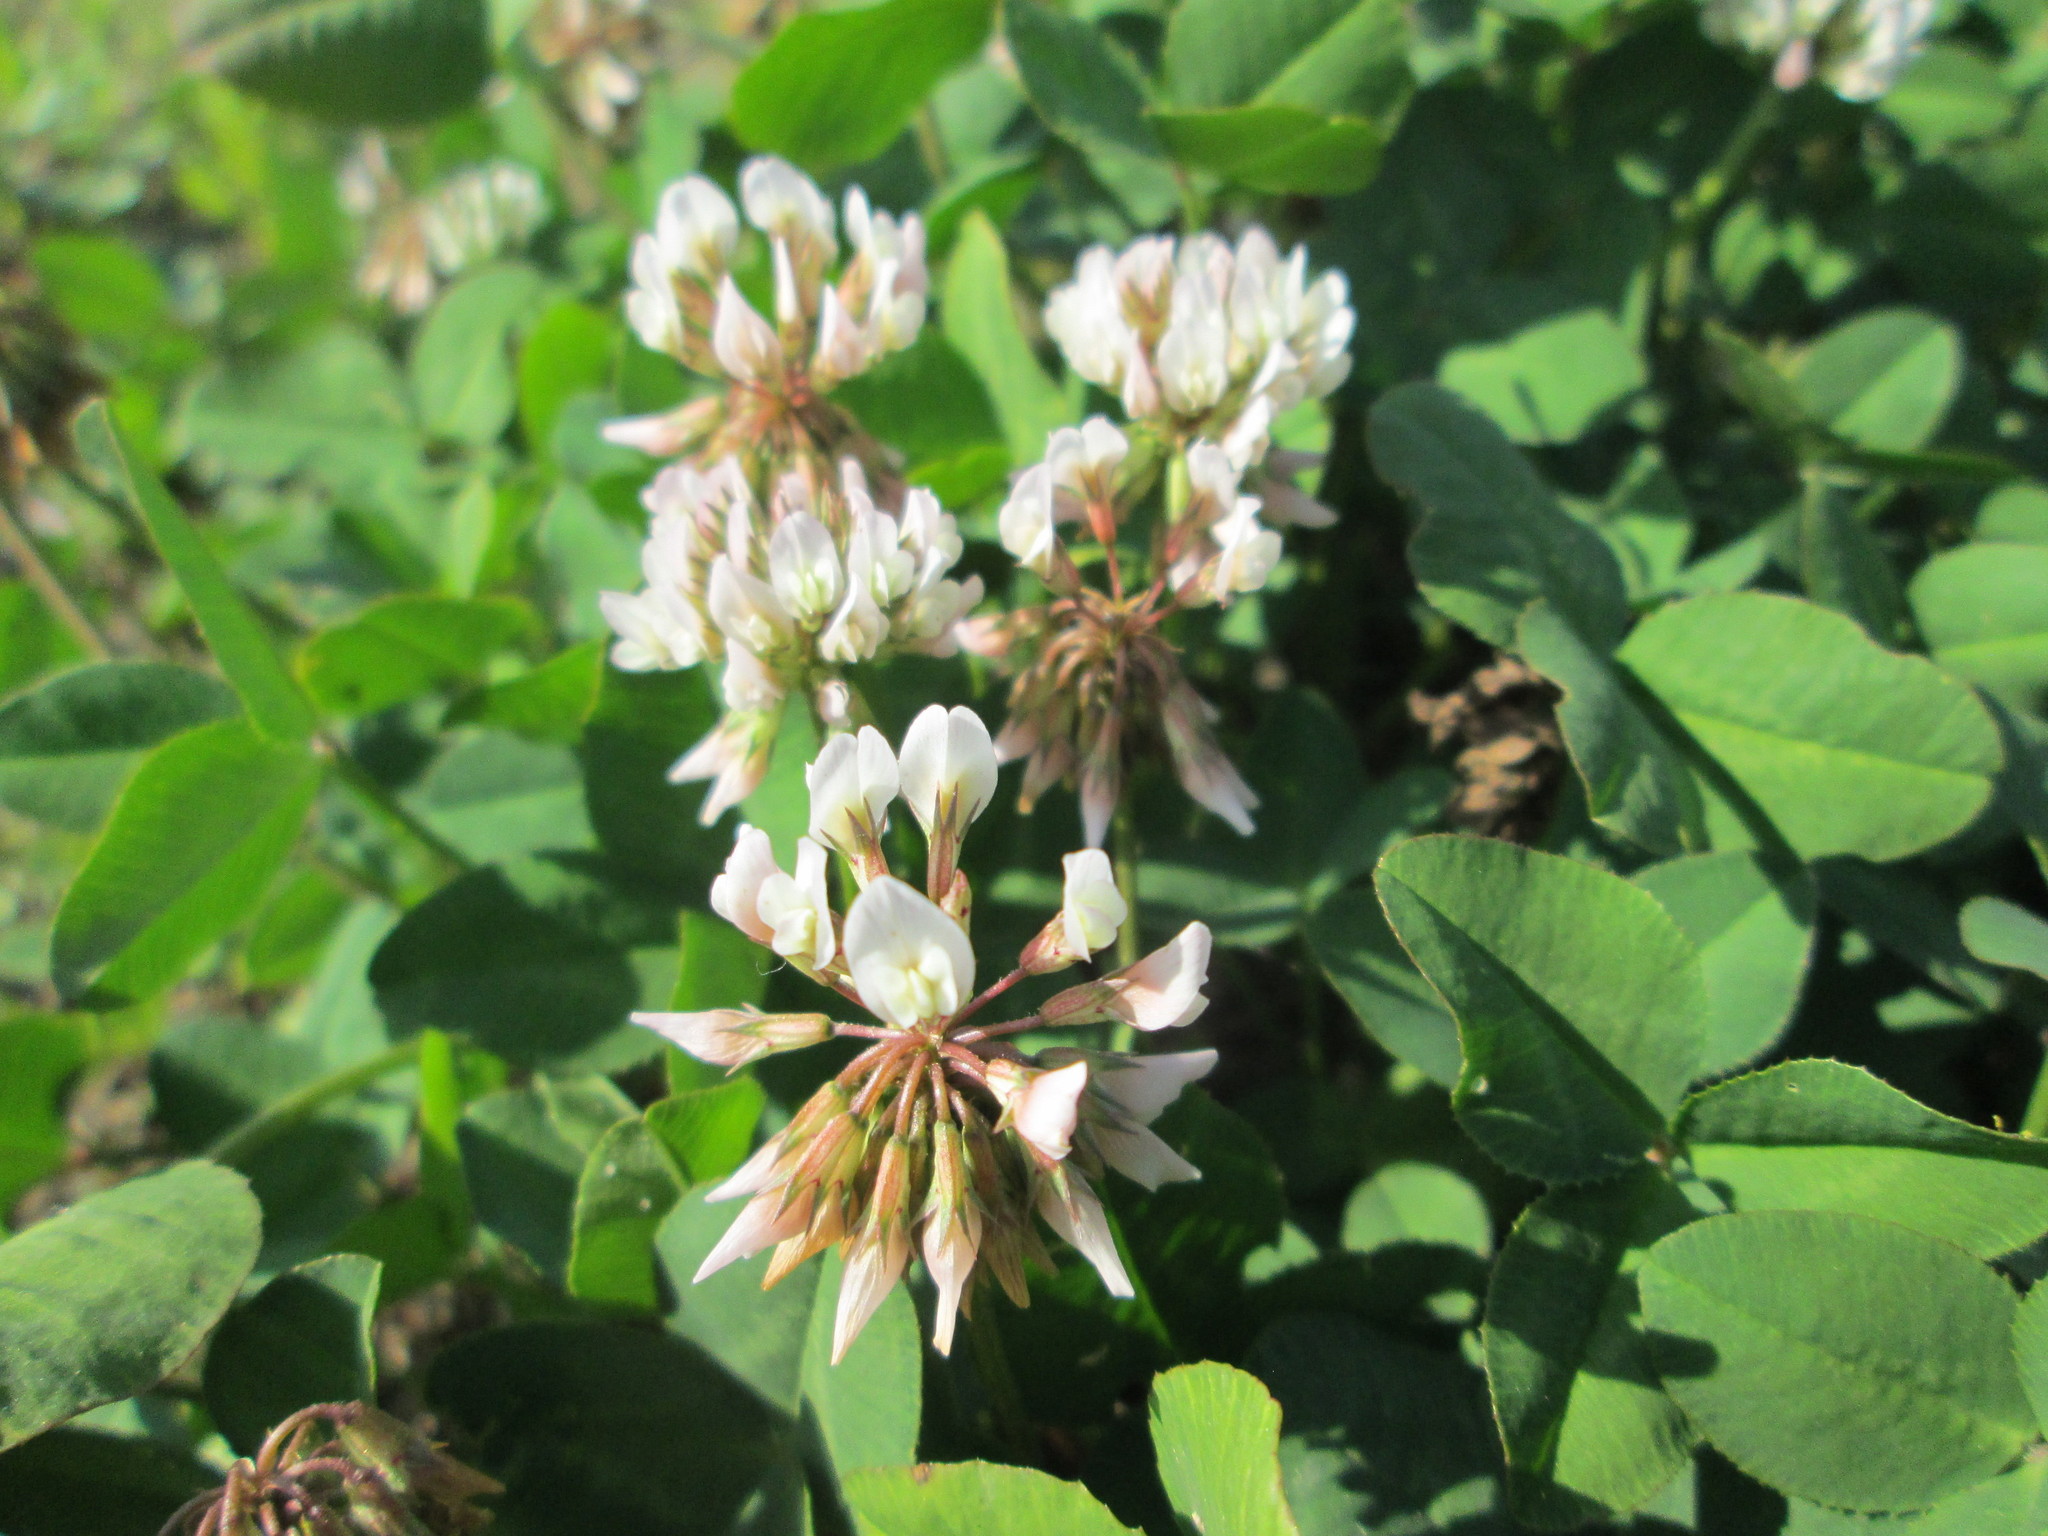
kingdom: Plantae
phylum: Tracheophyta
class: Magnoliopsida
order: Fabales
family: Fabaceae
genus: Trifolium
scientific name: Trifolium repens
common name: White clover
